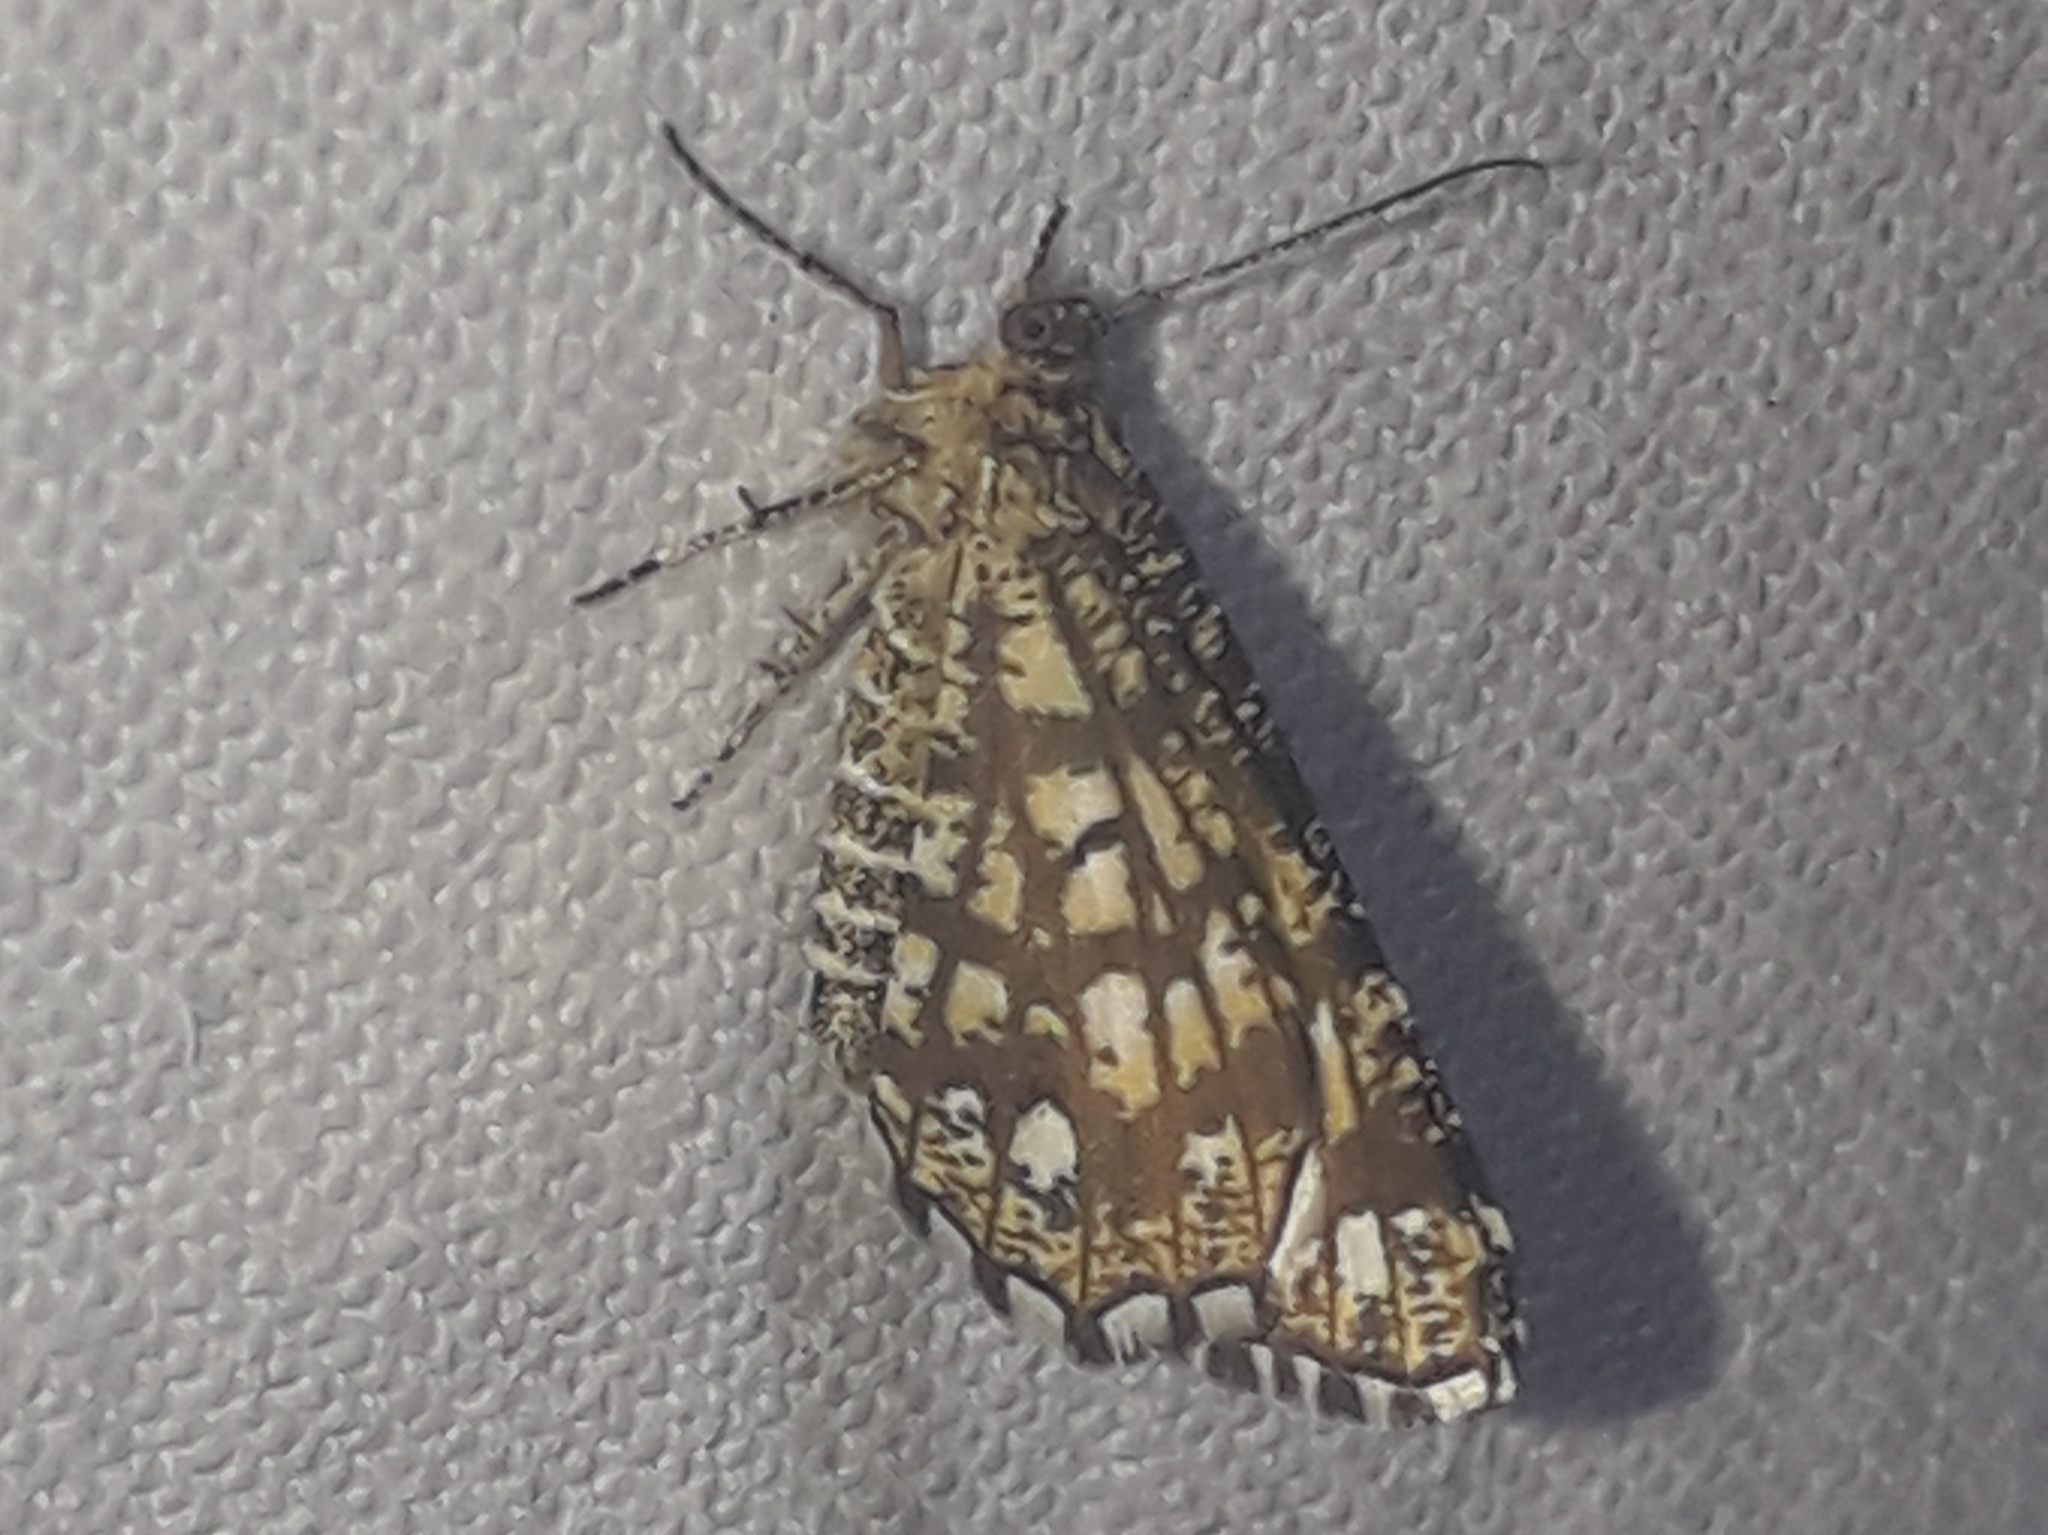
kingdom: Animalia
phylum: Arthropoda
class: Insecta
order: Lepidoptera
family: Geometridae
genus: Chiasmia
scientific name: Chiasmia clathrata
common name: Latticed heath
